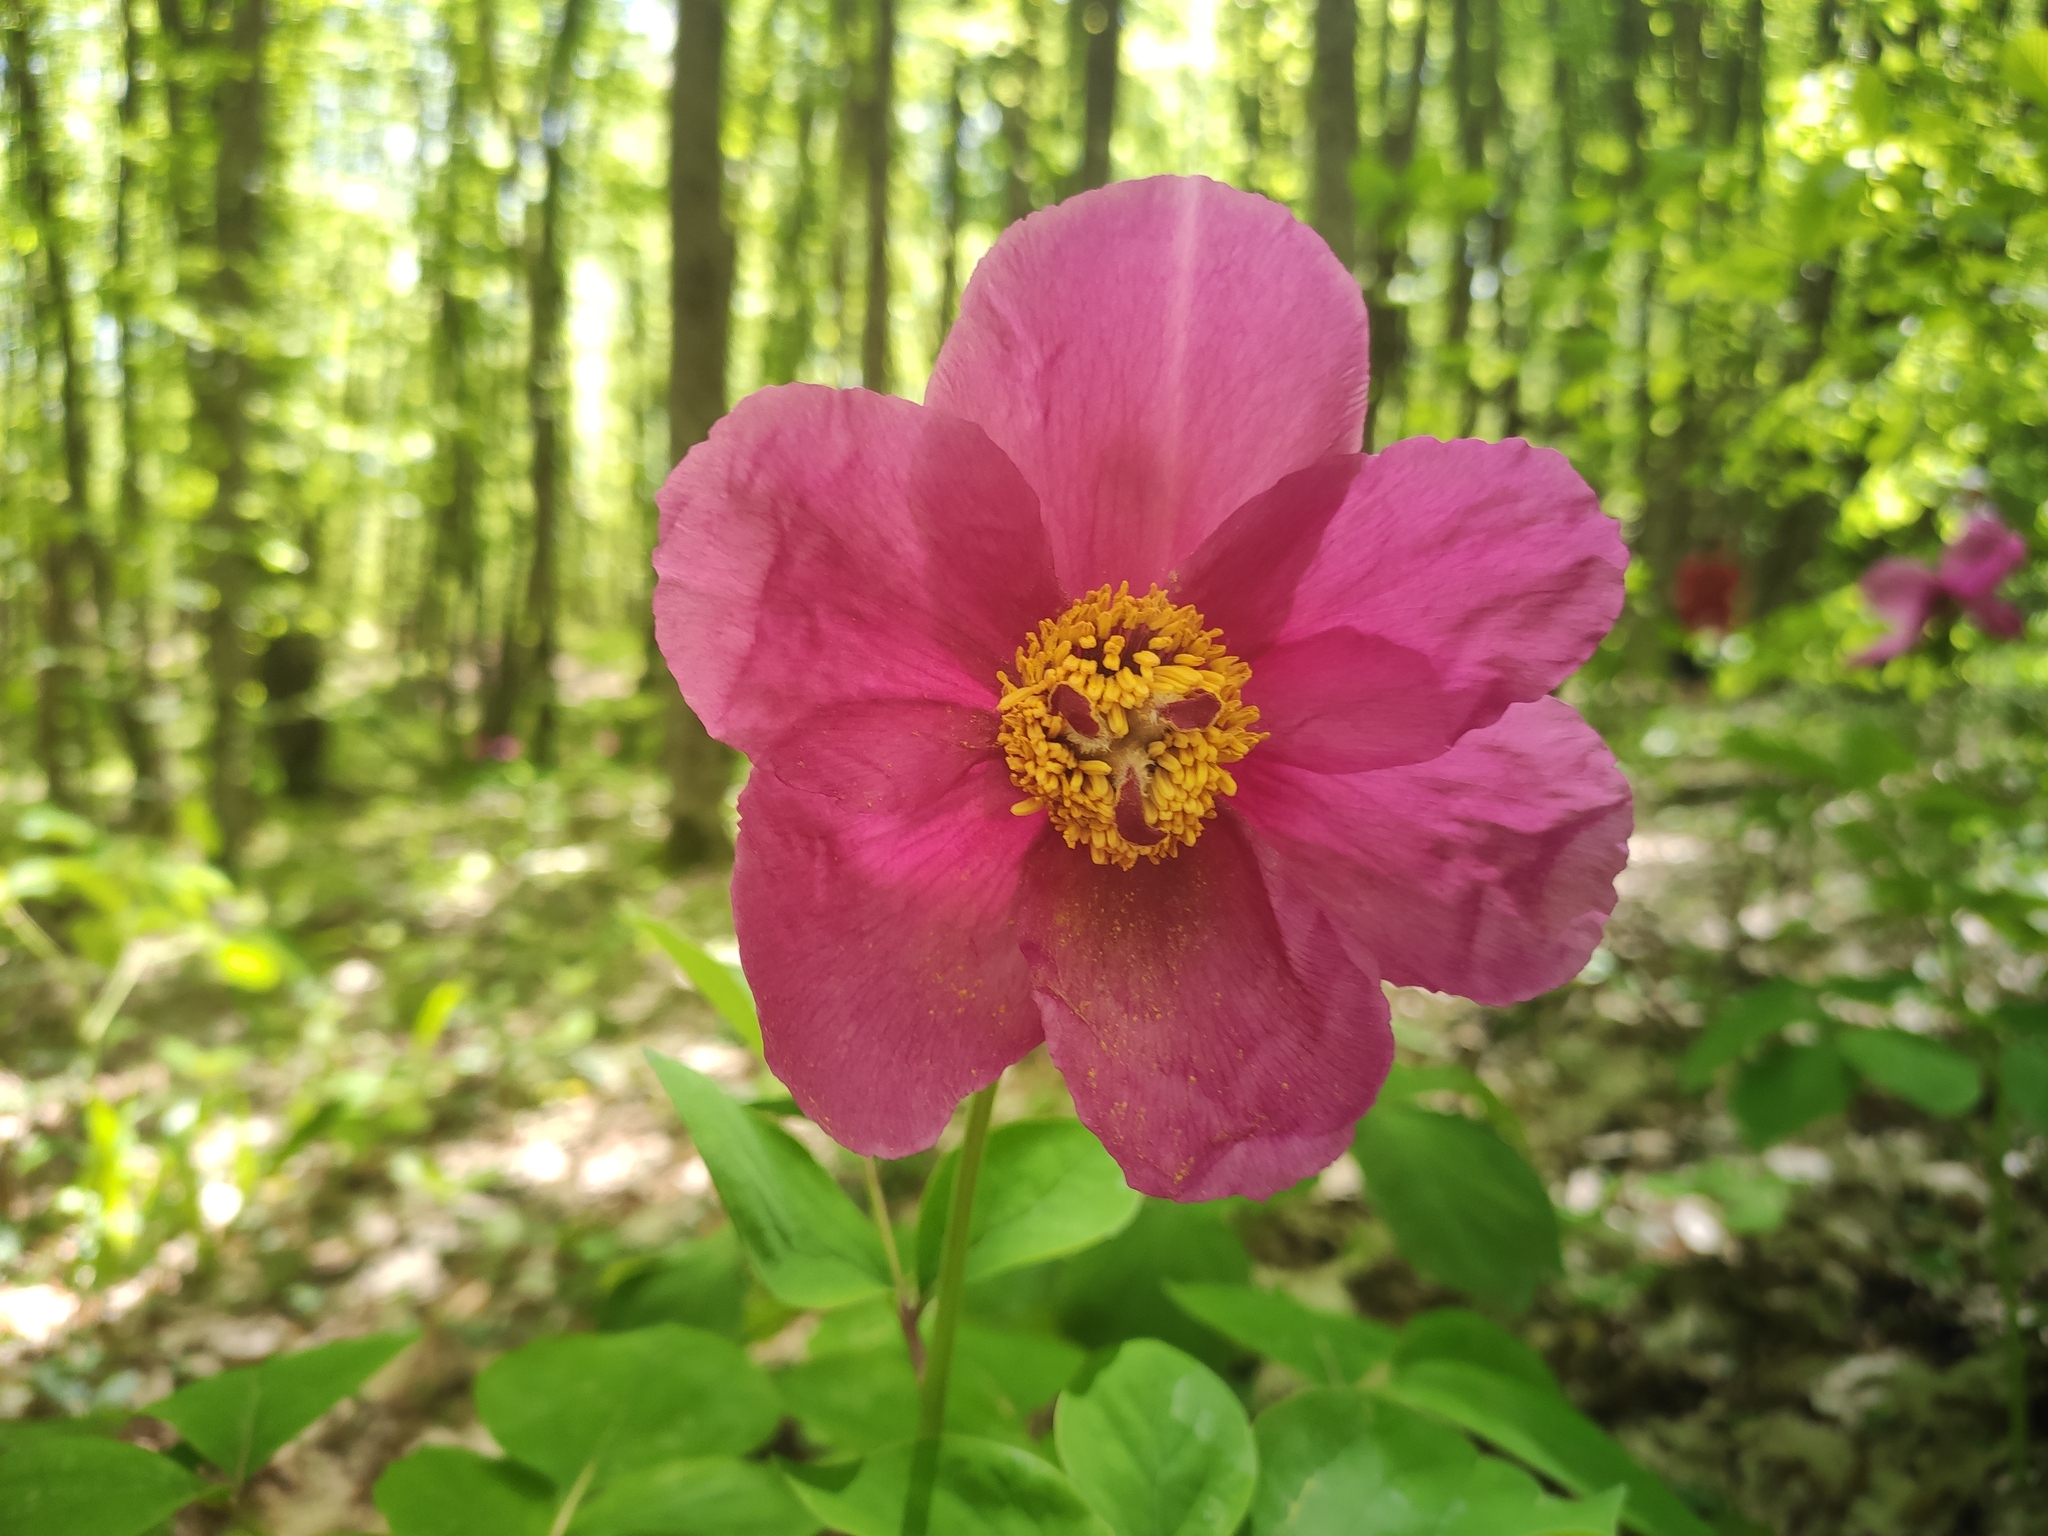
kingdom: Plantae
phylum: Tracheophyta
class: Magnoliopsida
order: Saxifragales
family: Paeoniaceae
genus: Paeonia
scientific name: Paeonia caucasica
